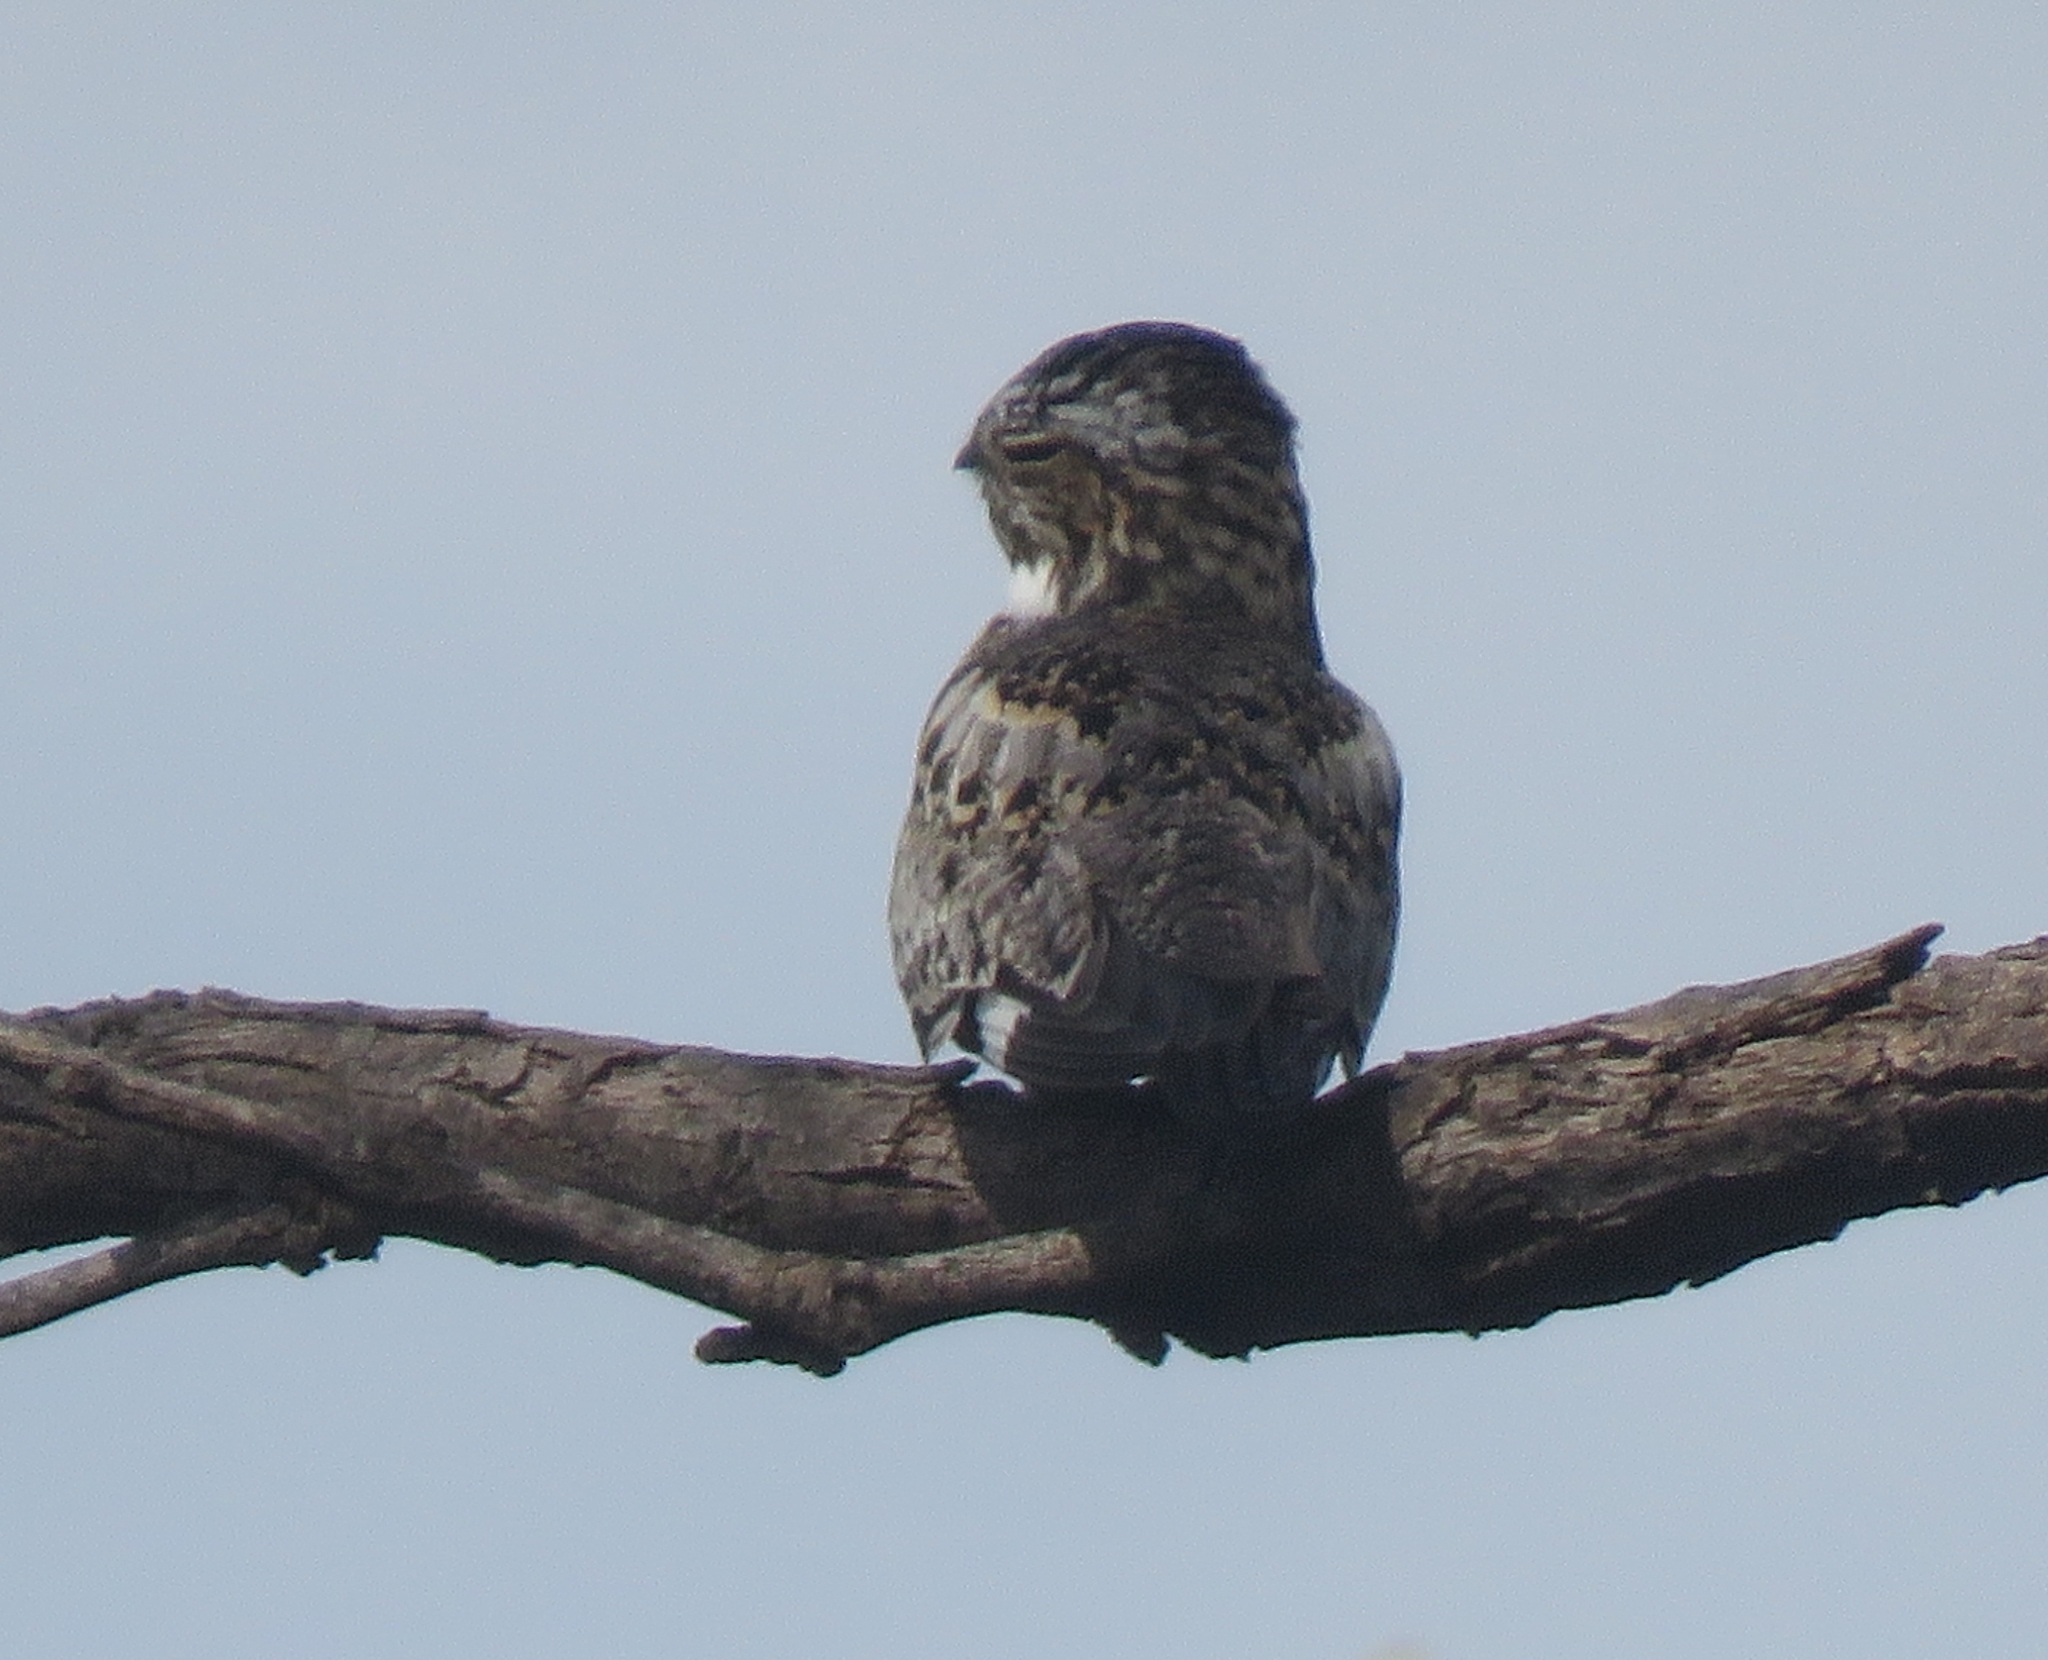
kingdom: Animalia
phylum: Chordata
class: Aves
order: Caprimulgiformes
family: Caprimulgidae
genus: Chordeiles
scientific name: Chordeiles minor
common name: Common nighthawk
